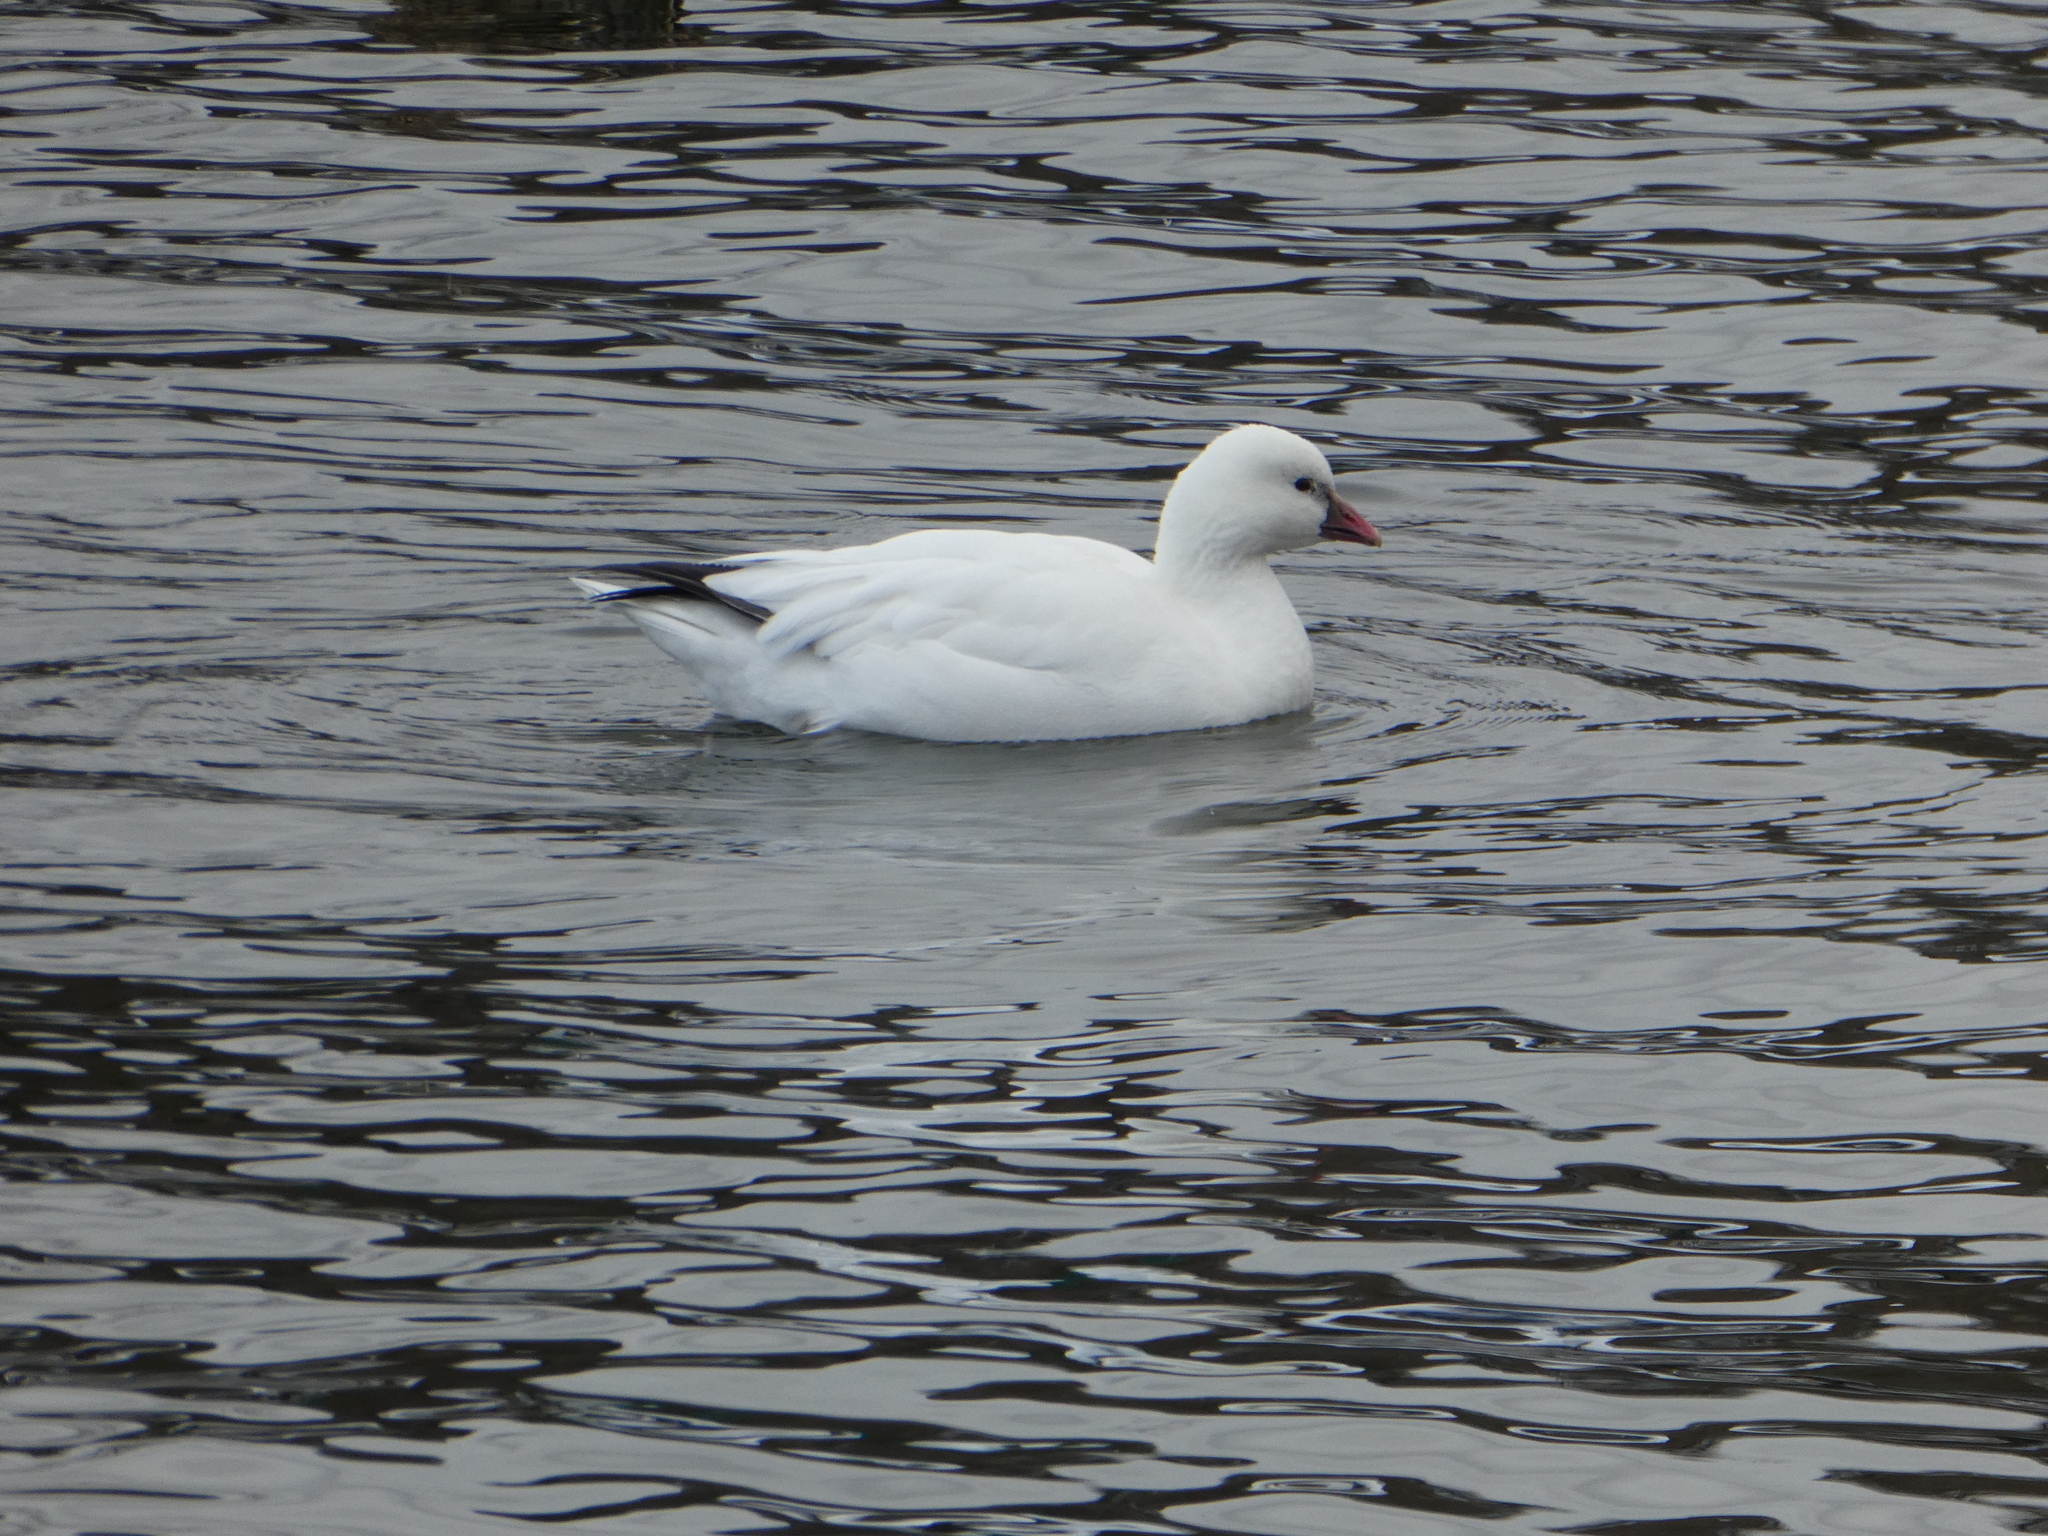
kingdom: Animalia
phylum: Chordata
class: Aves
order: Anseriformes
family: Anatidae
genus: Anser
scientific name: Anser
